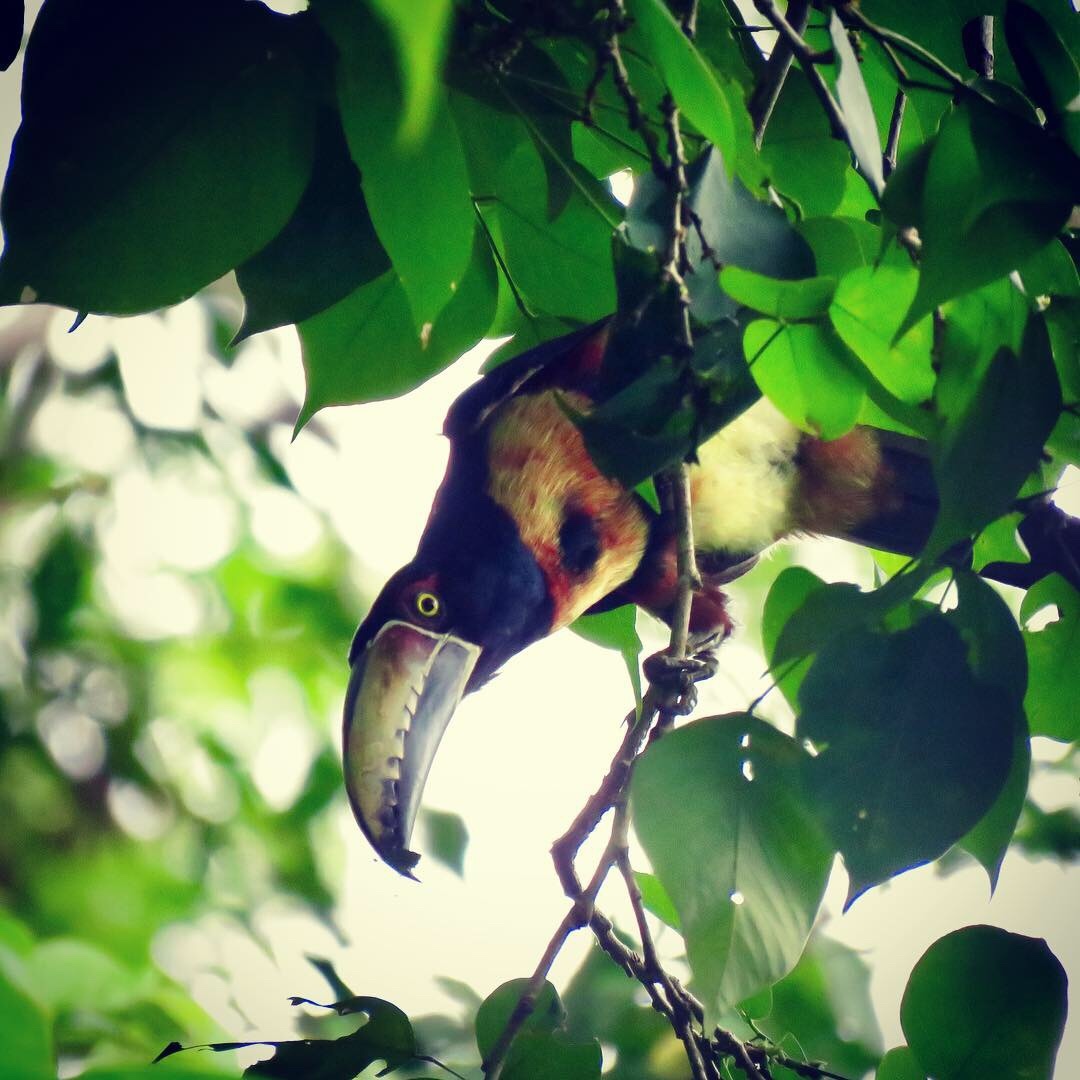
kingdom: Animalia
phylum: Chordata
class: Aves
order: Piciformes
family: Ramphastidae
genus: Pteroglossus
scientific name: Pteroglossus torquatus
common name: Collared aracari
